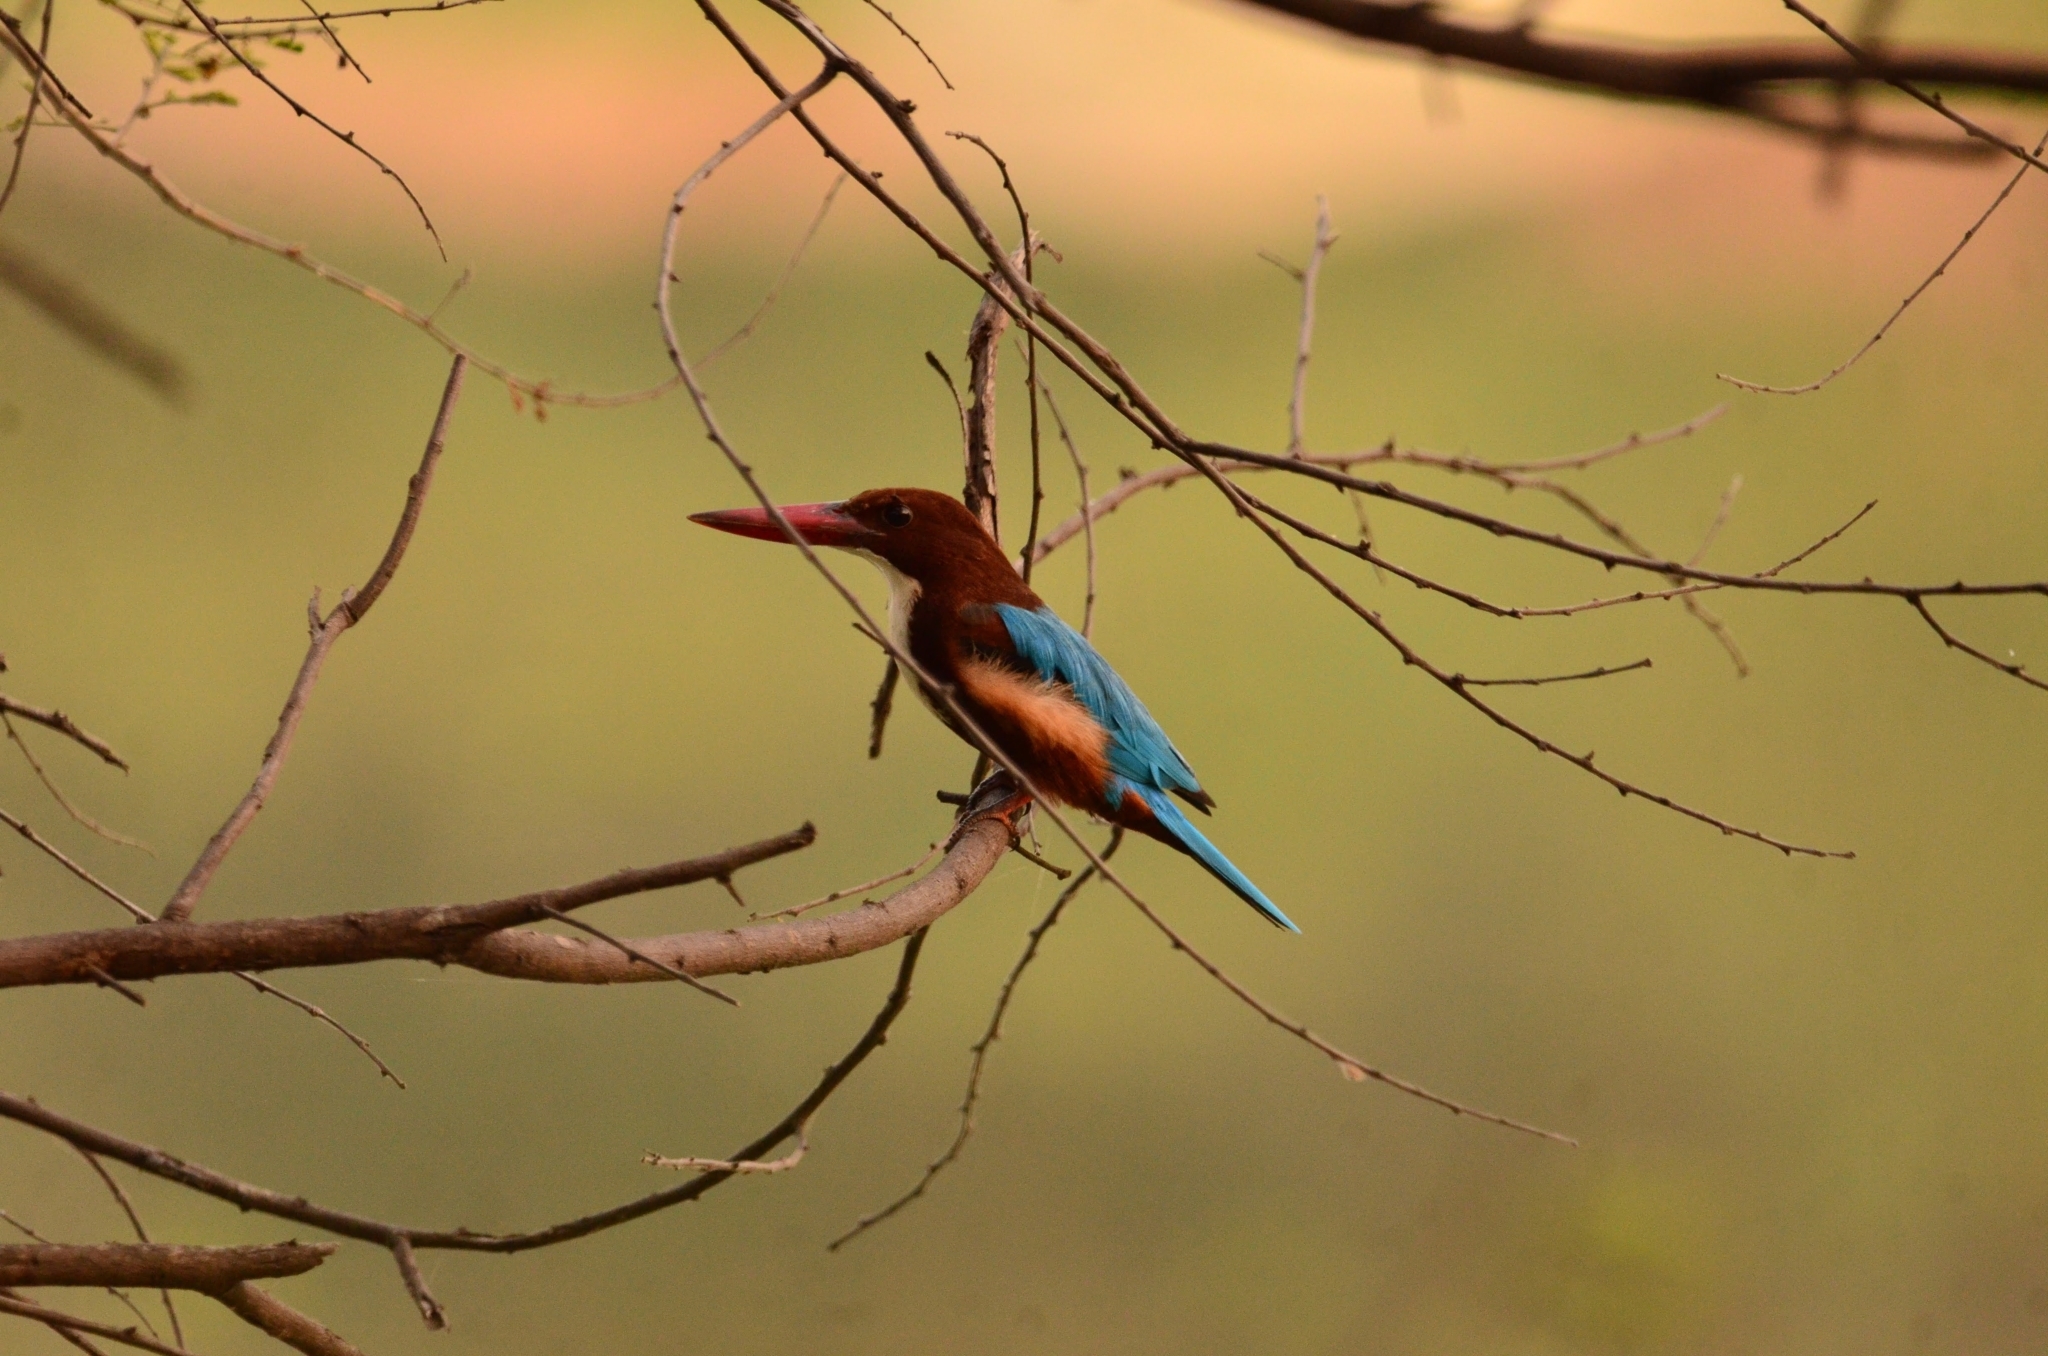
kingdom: Animalia
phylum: Chordata
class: Aves
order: Coraciiformes
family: Alcedinidae
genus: Halcyon
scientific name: Halcyon smyrnensis
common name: White-throated kingfisher
